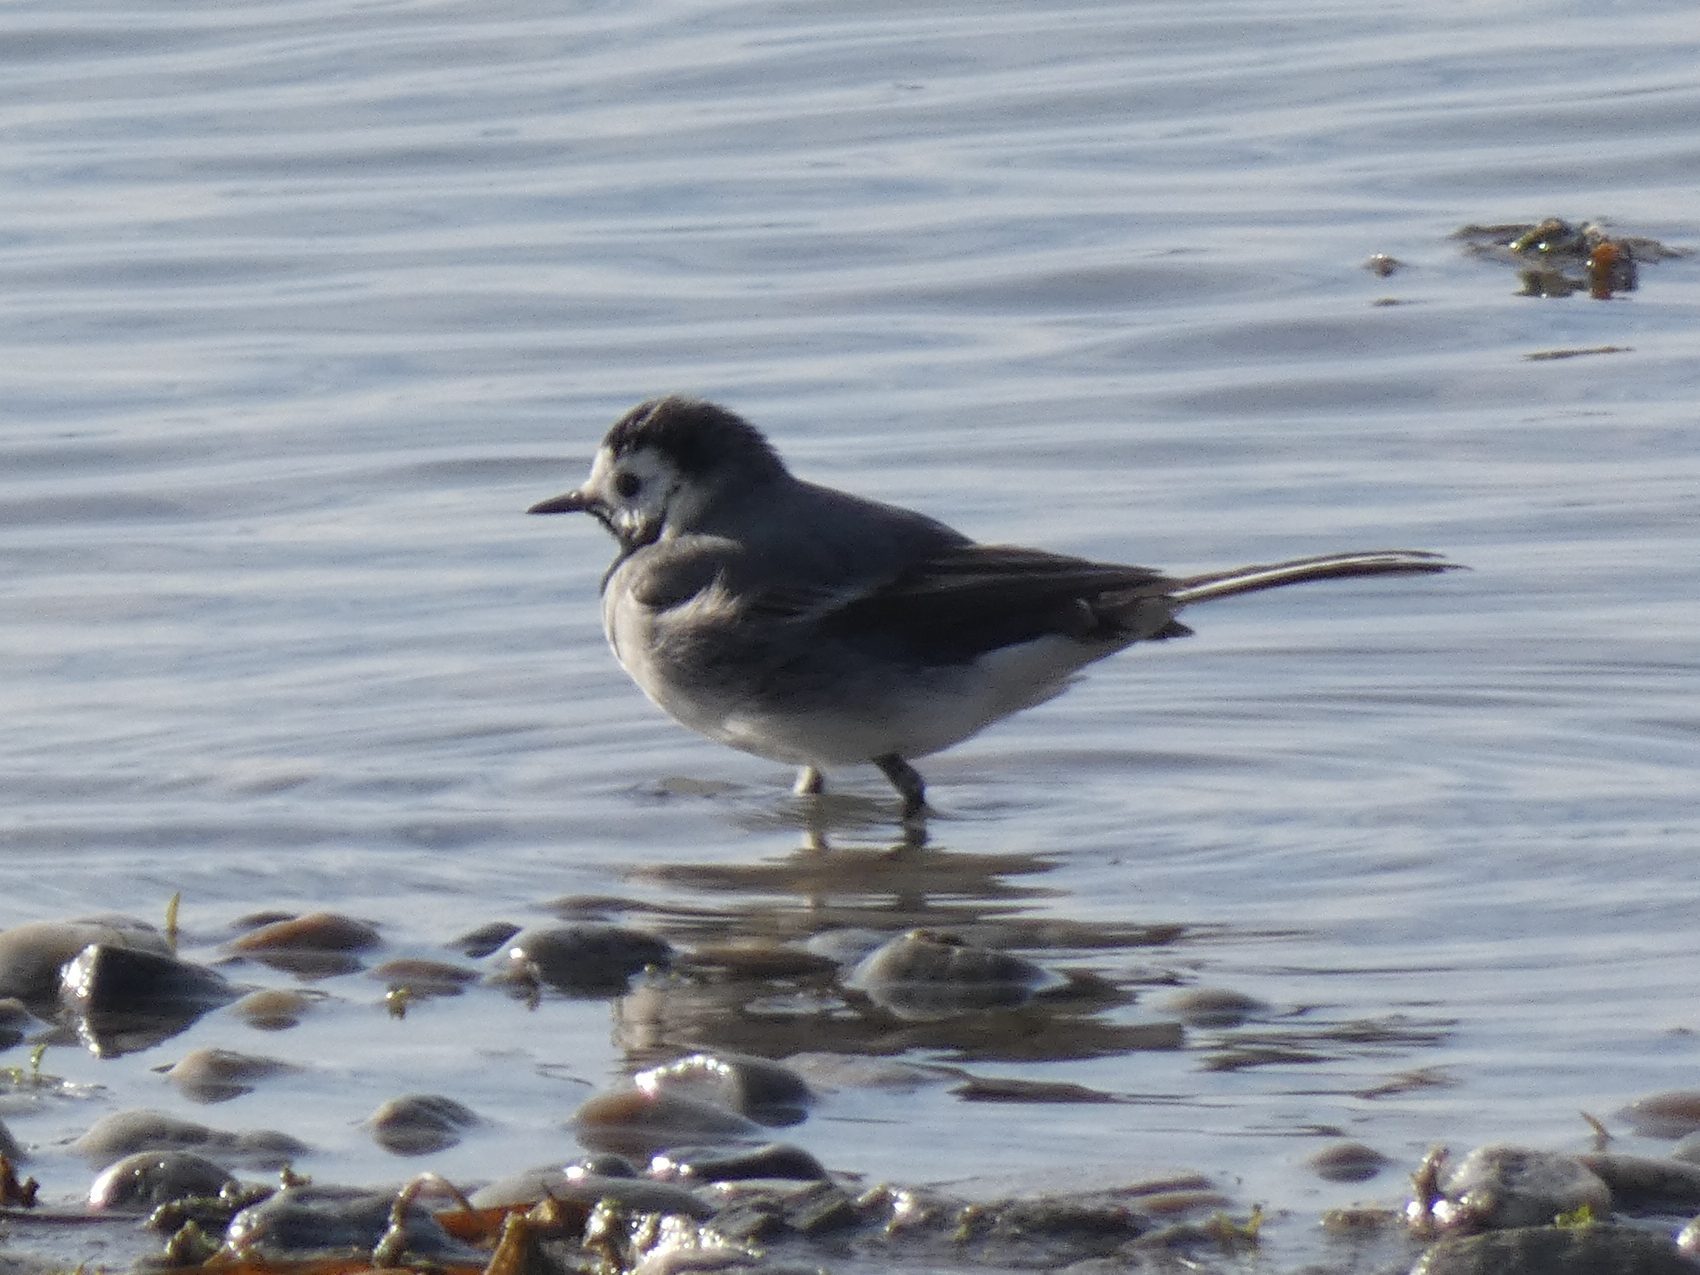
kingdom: Animalia
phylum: Chordata
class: Aves
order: Passeriformes
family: Motacillidae
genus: Motacilla
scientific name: Motacilla alba
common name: White wagtail
